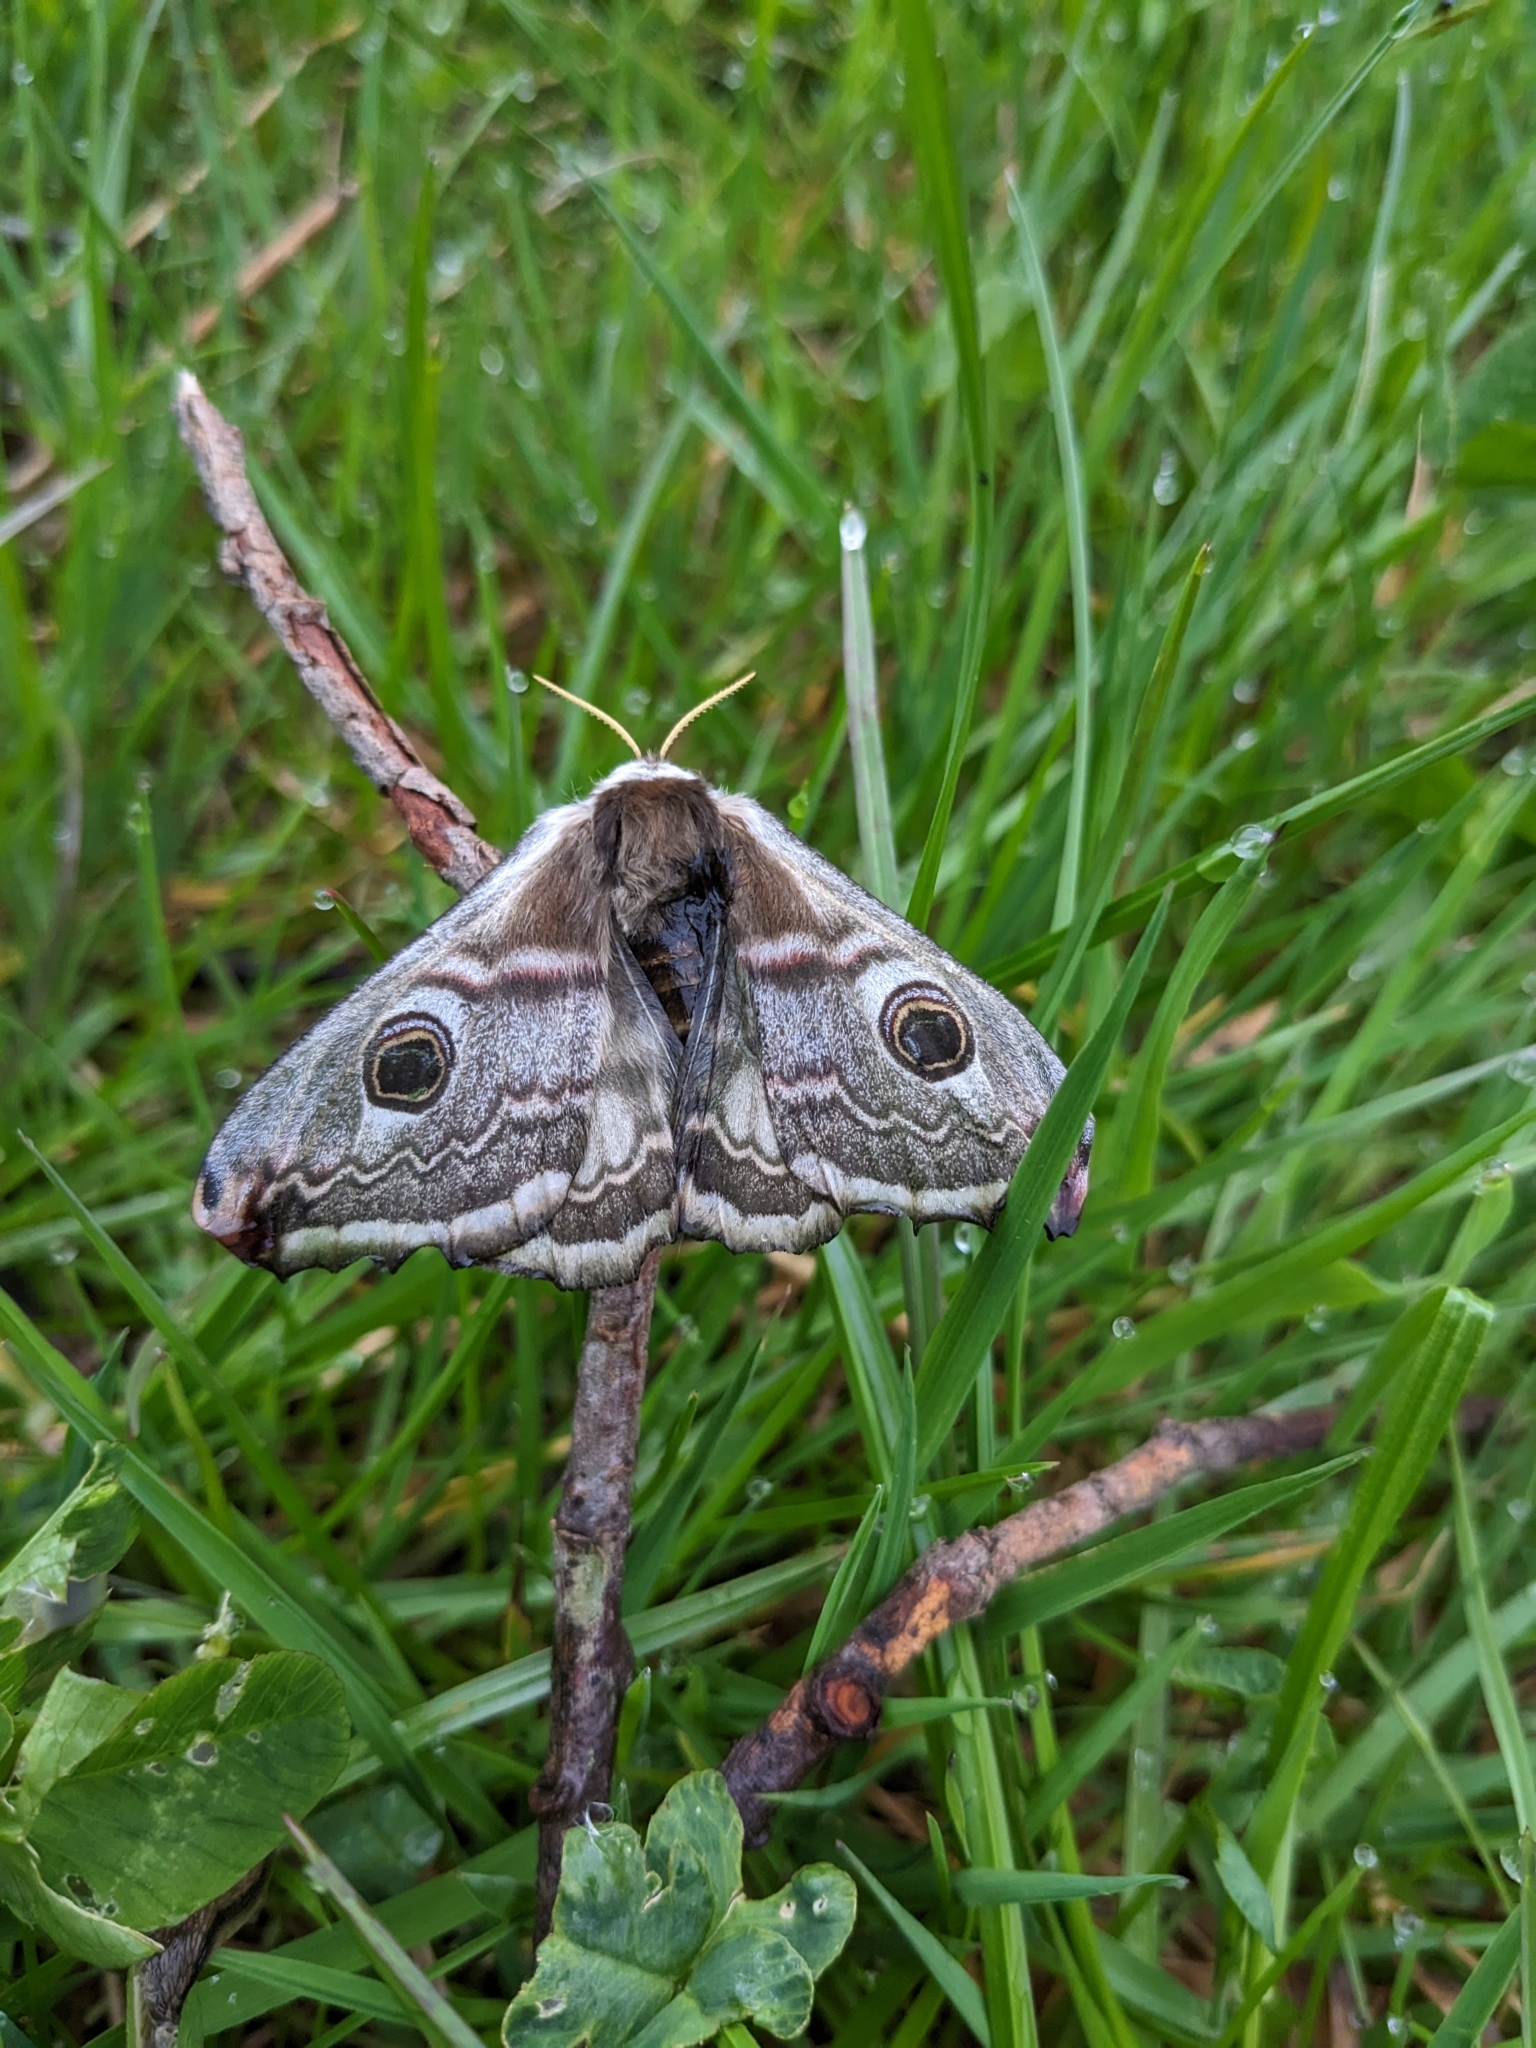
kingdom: Animalia
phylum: Arthropoda
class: Insecta
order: Lepidoptera
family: Saturniidae
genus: Saturnia
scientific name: Saturnia pavonia
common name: Emperor moth
